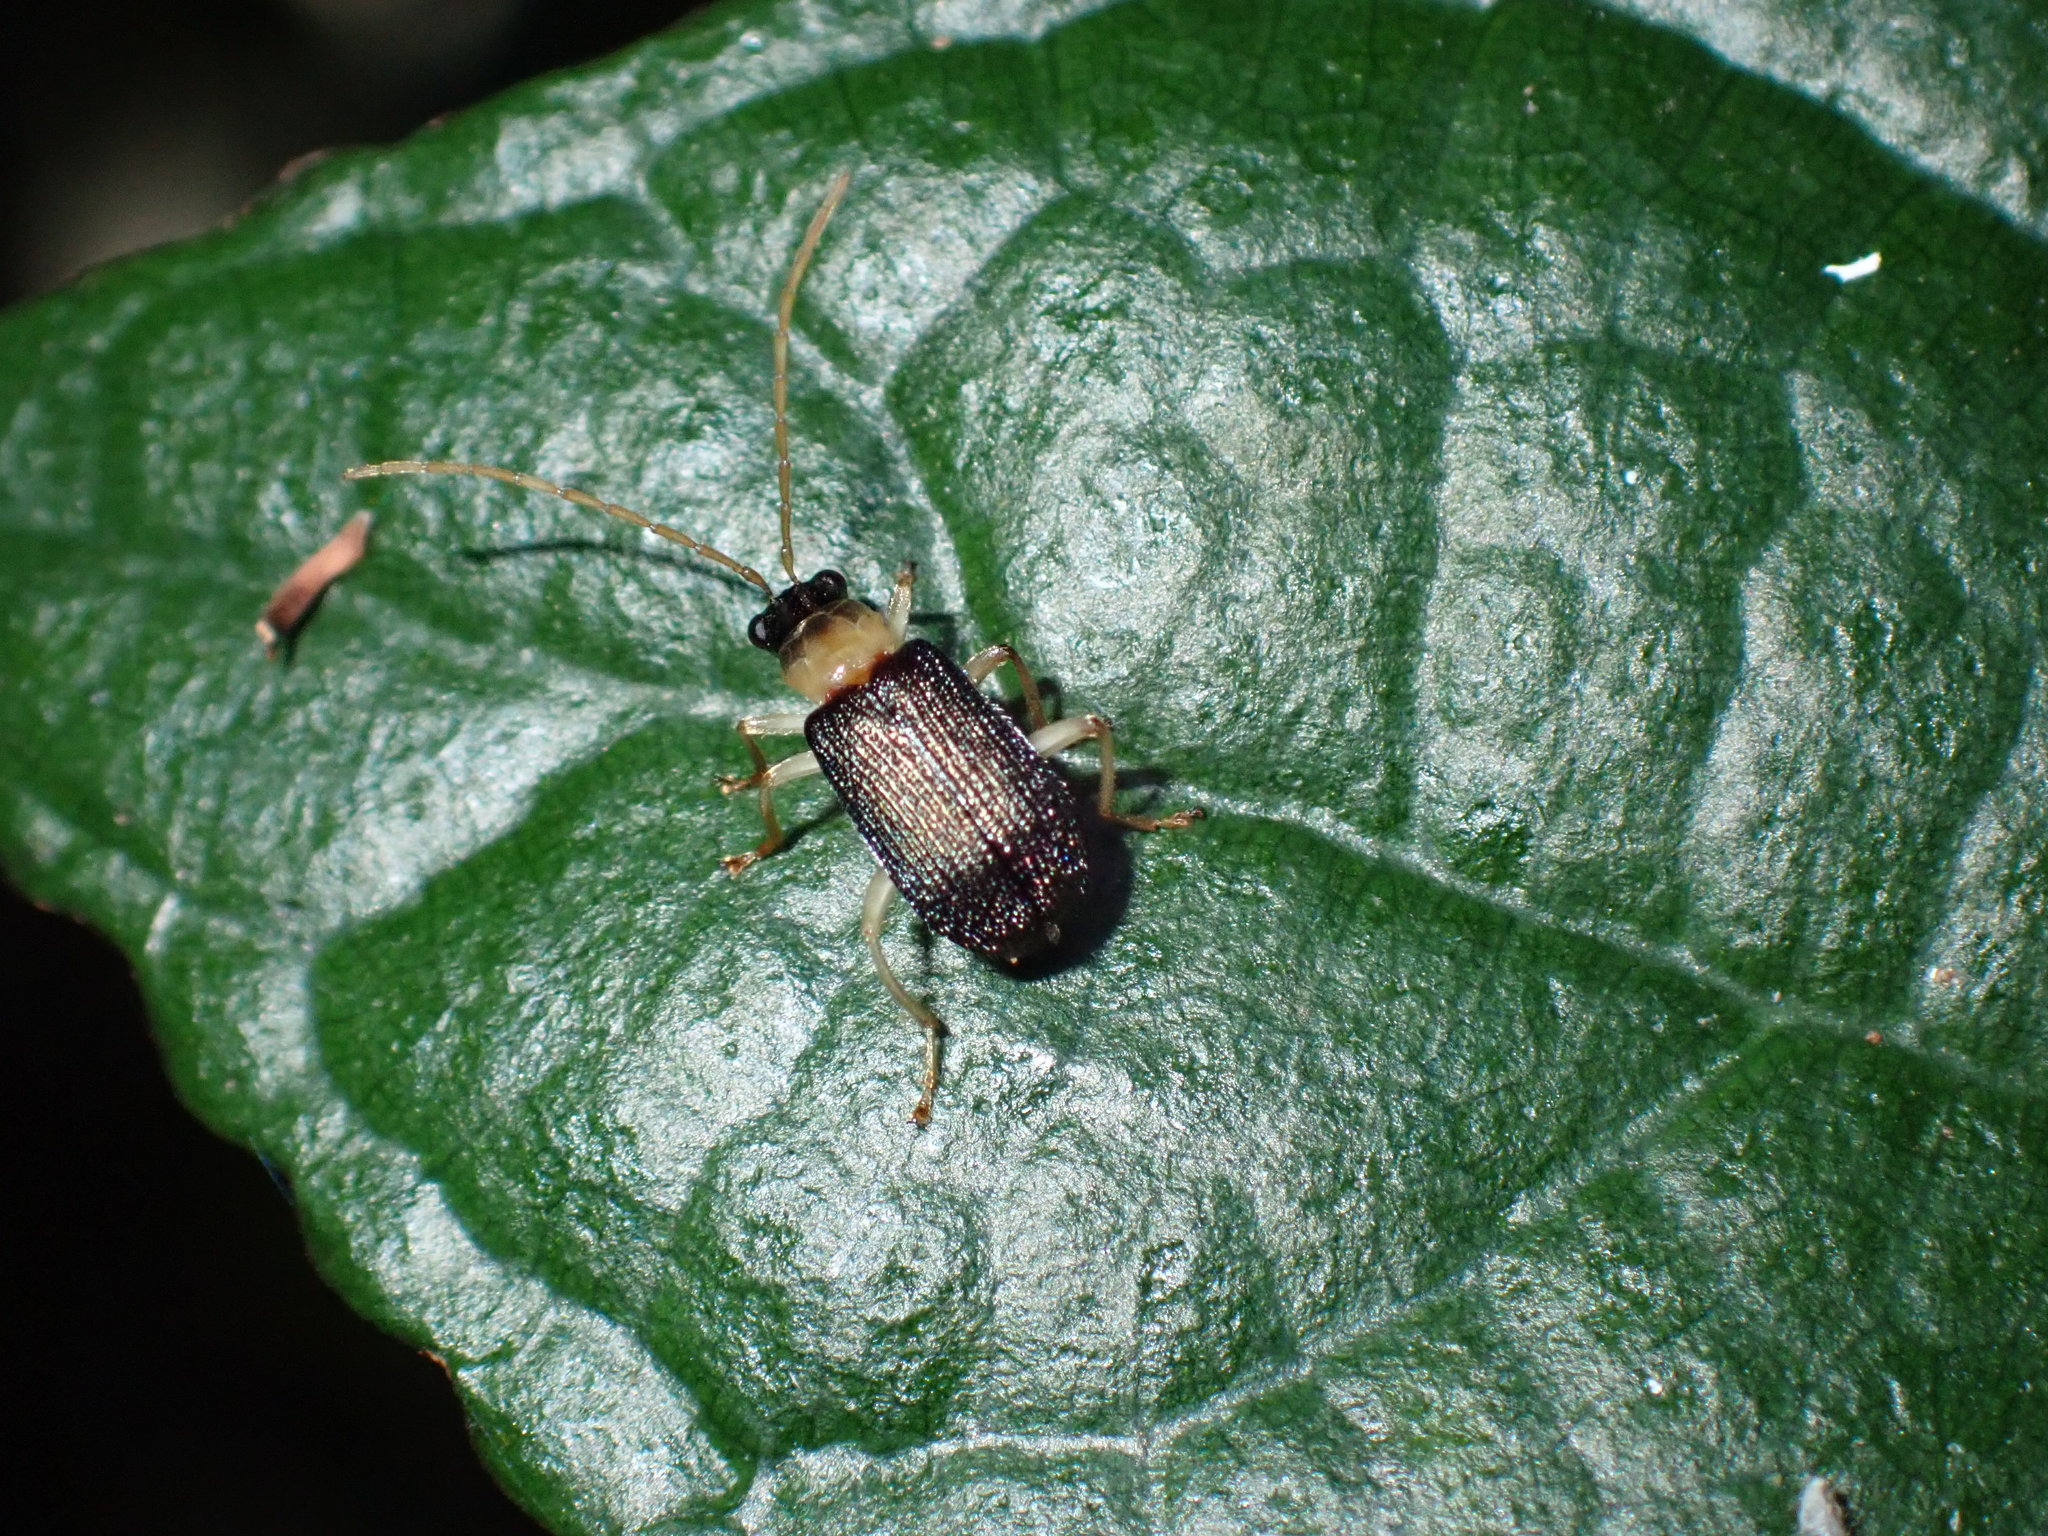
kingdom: Animalia
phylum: Arthropoda
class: Insecta
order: Coleoptera
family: Chrysomelidae
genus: Trichobalya
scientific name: Trichobalya
